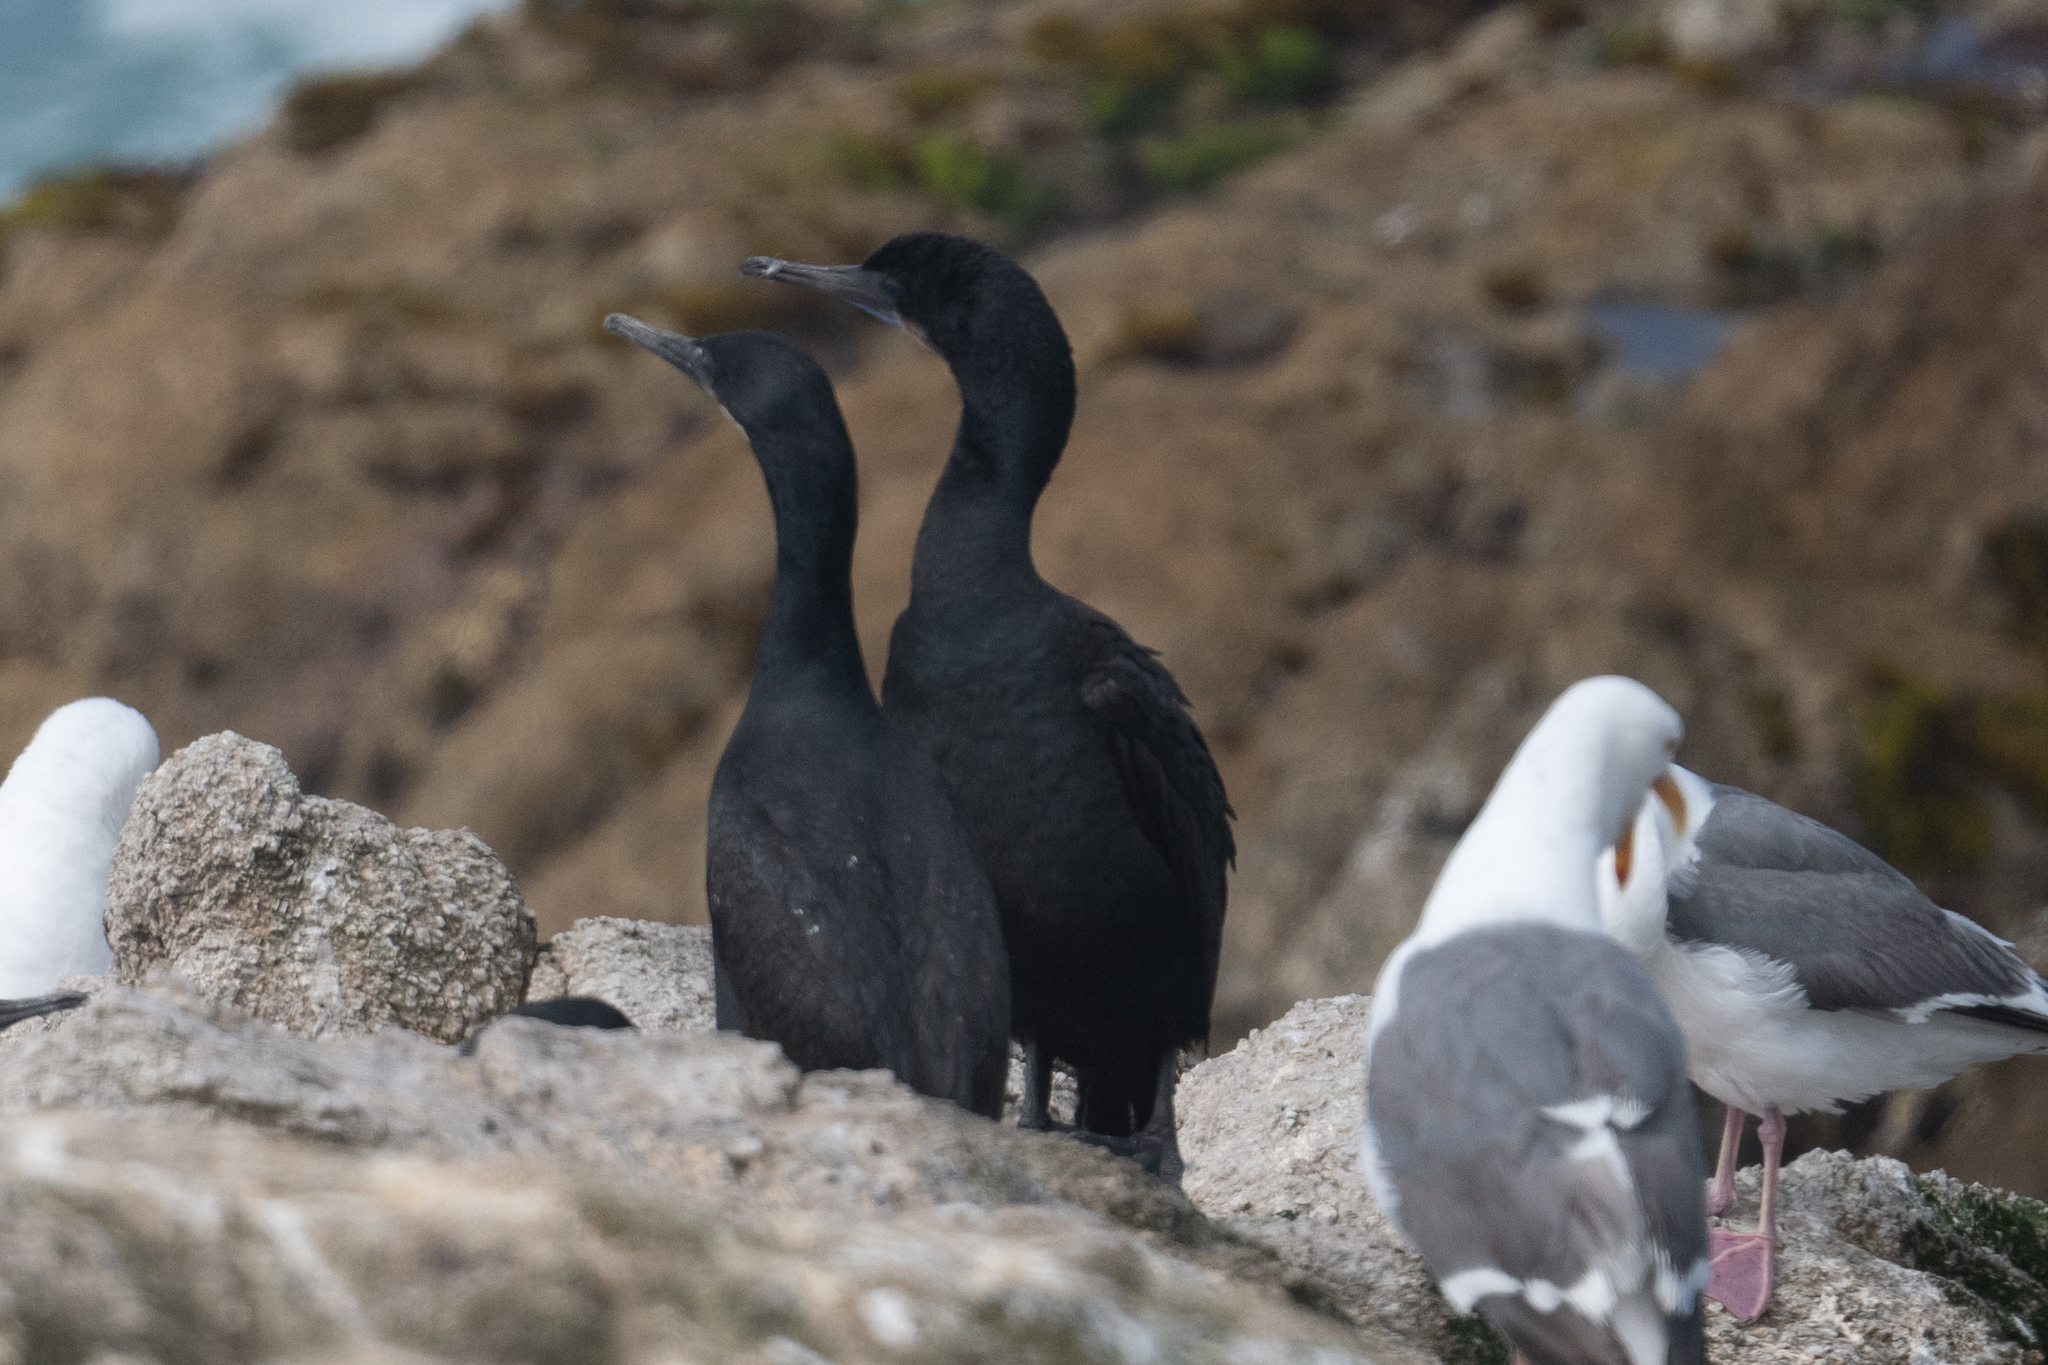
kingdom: Animalia
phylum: Chordata
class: Aves
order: Suliformes
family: Phalacrocoracidae
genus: Urile
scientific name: Urile penicillatus
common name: Brandt's cormorant
